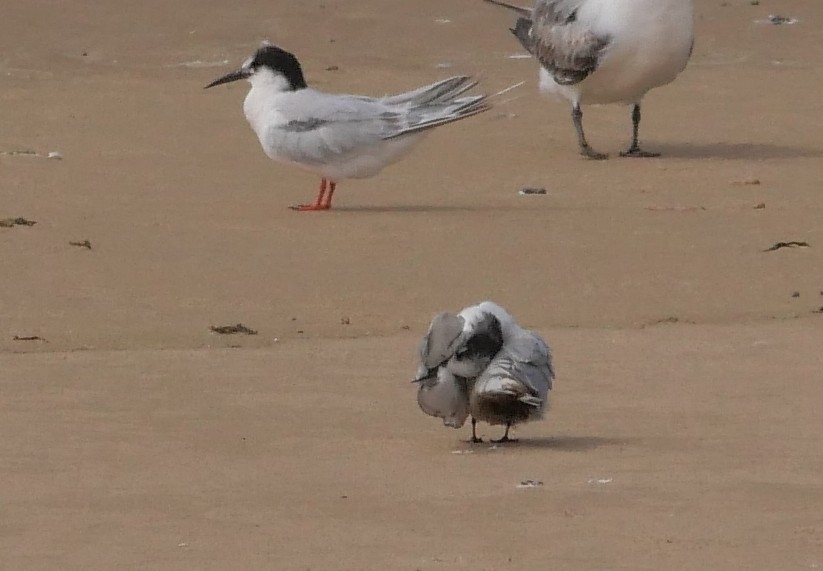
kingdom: Animalia
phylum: Chordata
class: Aves
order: Charadriiformes
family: Laridae
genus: Sternula
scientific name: Sternula albifrons
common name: Little tern
